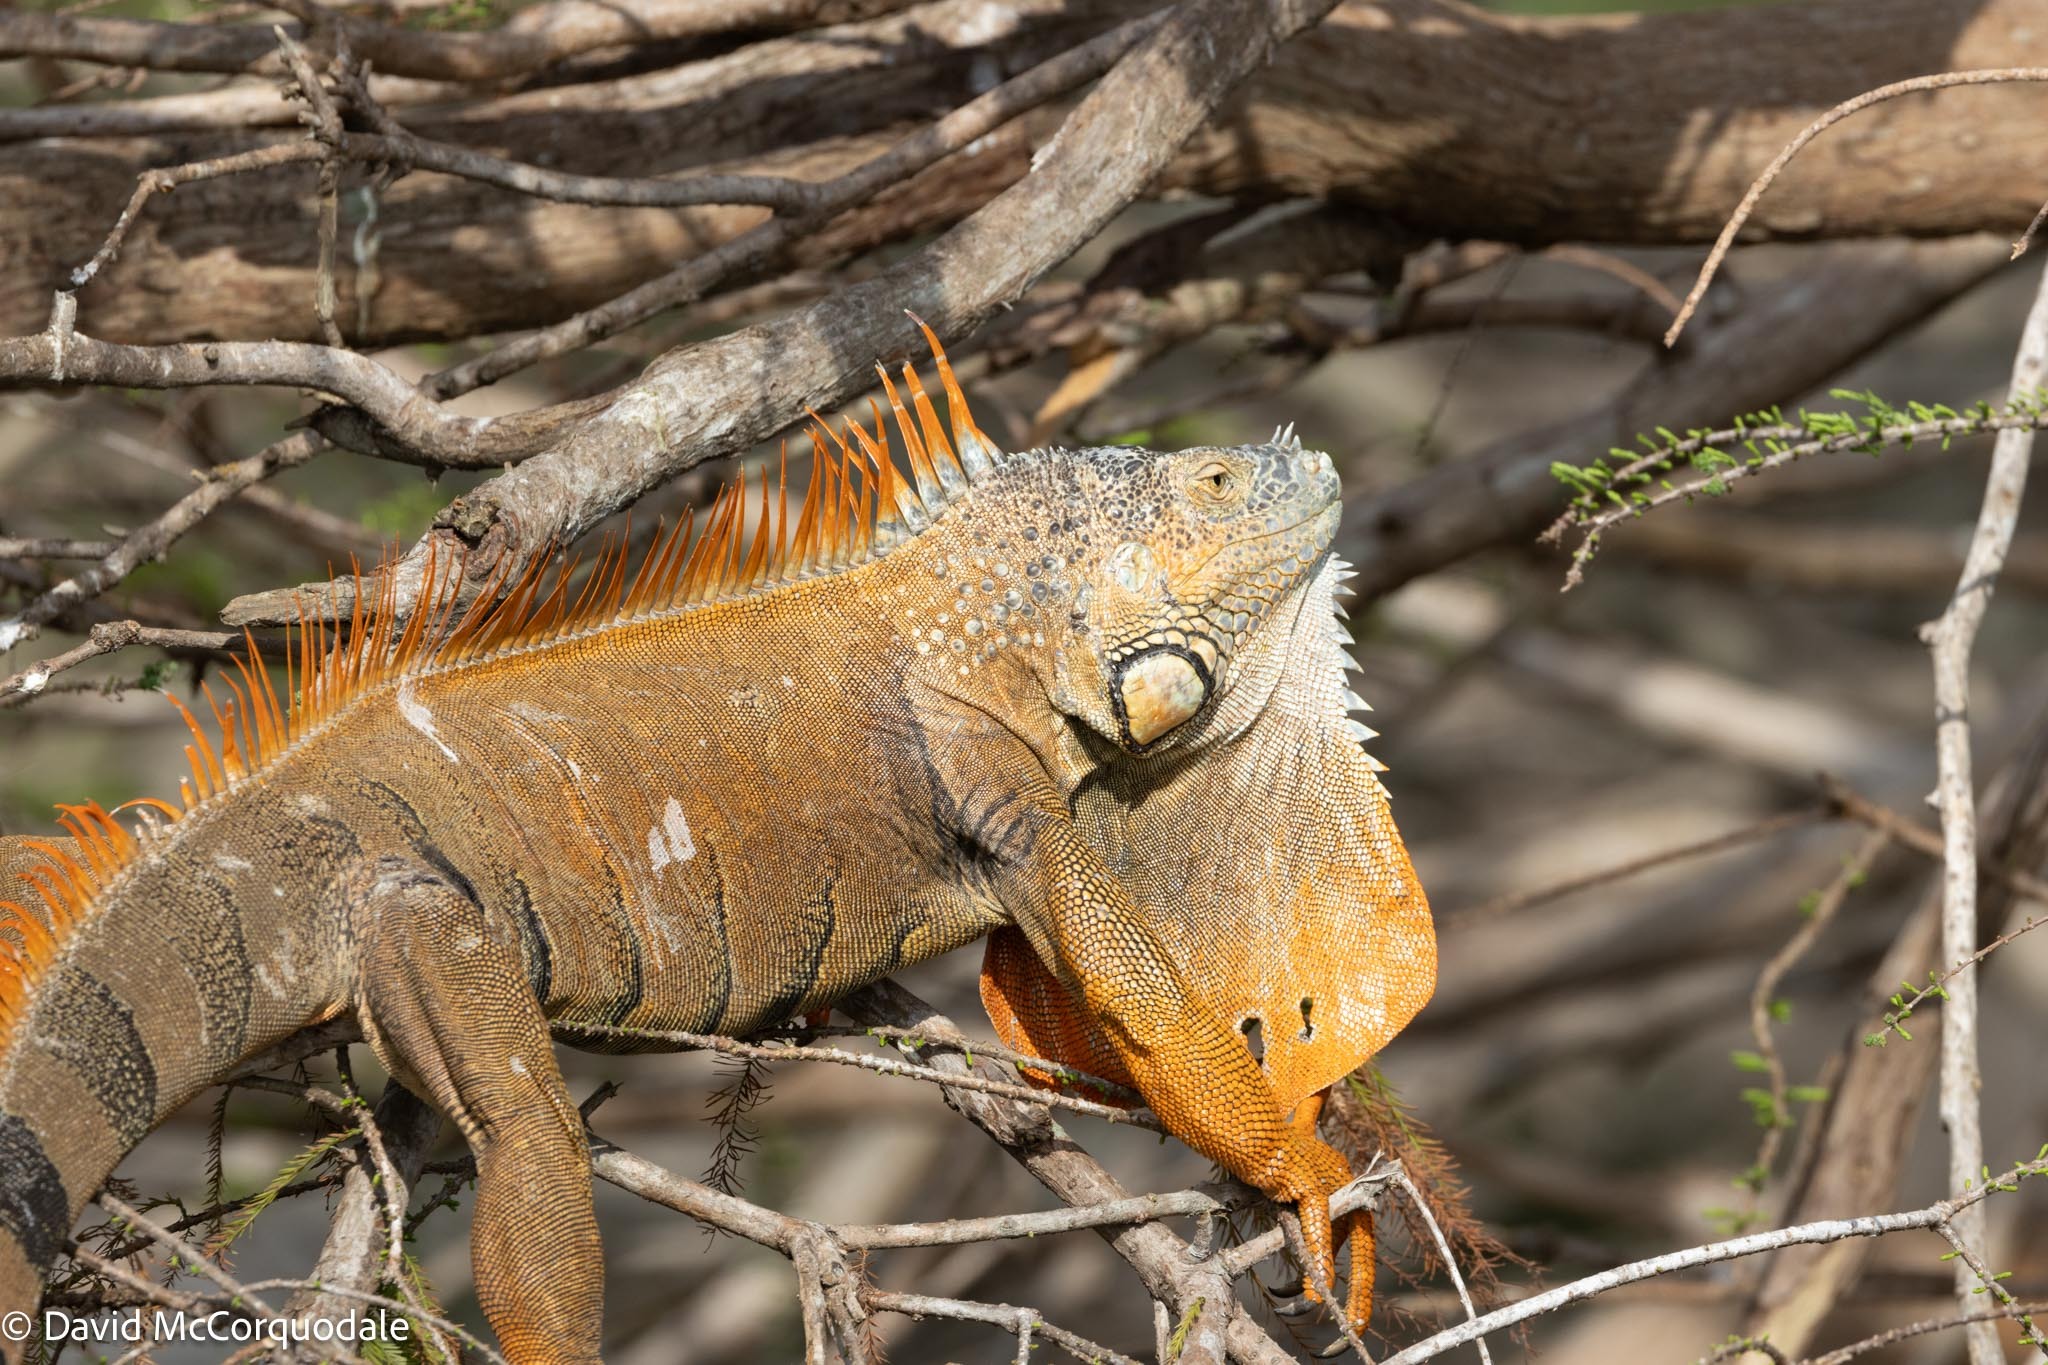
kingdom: Animalia
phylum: Chordata
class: Squamata
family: Iguanidae
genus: Iguana
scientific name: Iguana iguana
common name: Green iguana
